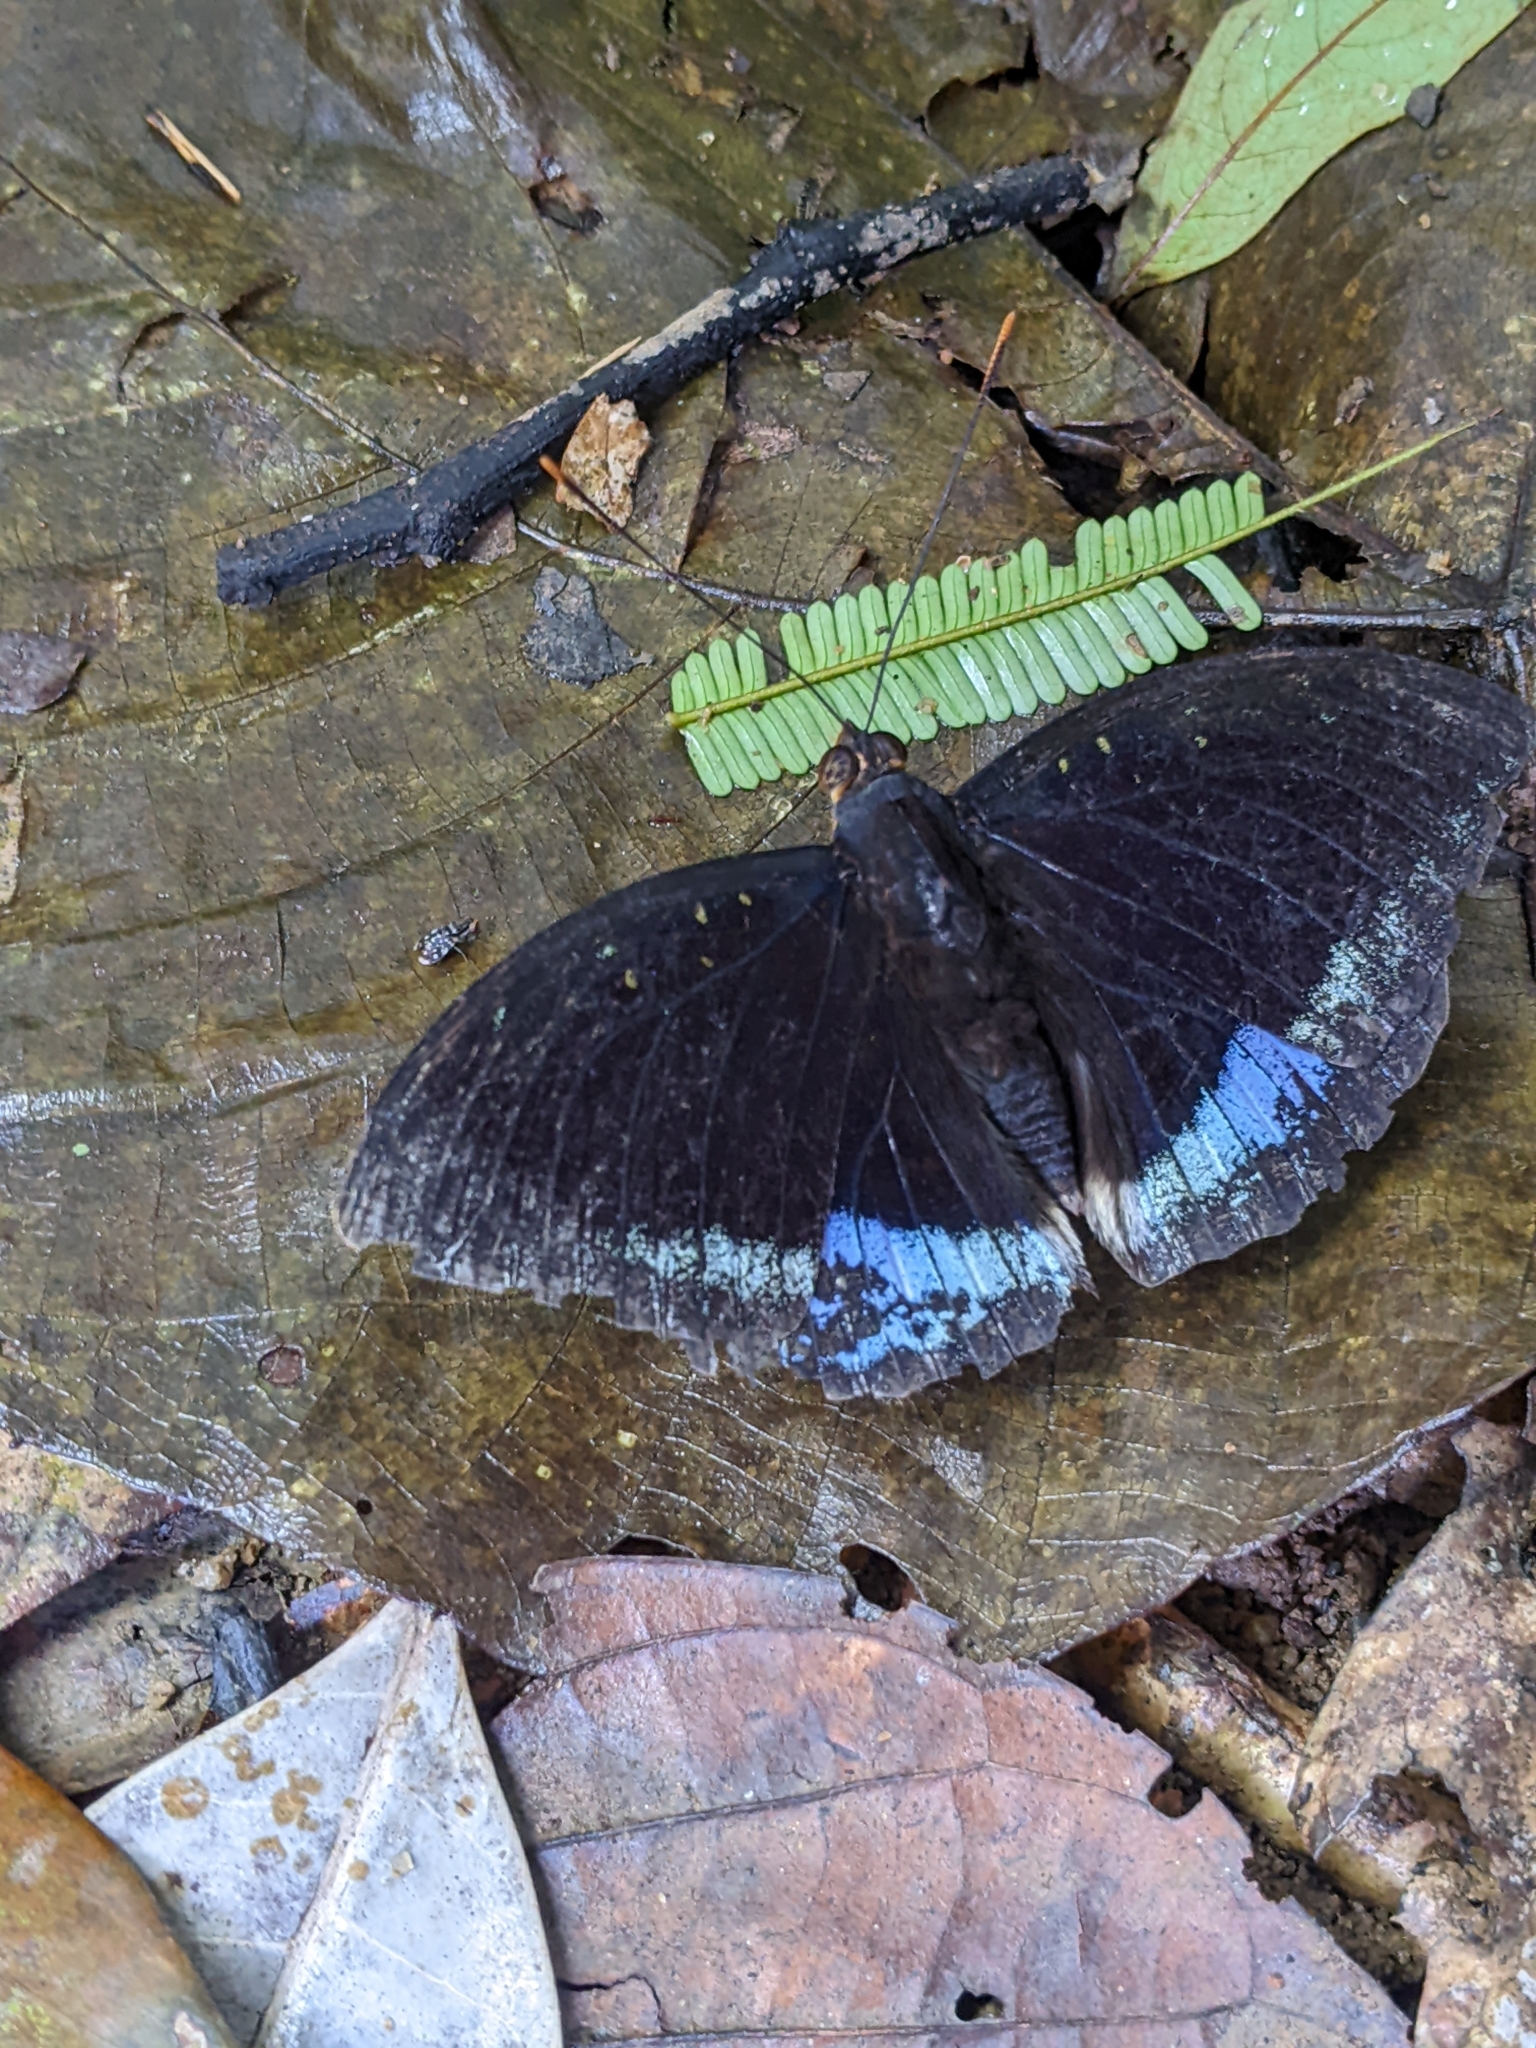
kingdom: Animalia
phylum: Arthropoda
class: Insecta
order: Lepidoptera
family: Nymphalidae
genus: Lexias
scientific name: Lexias pardalis
